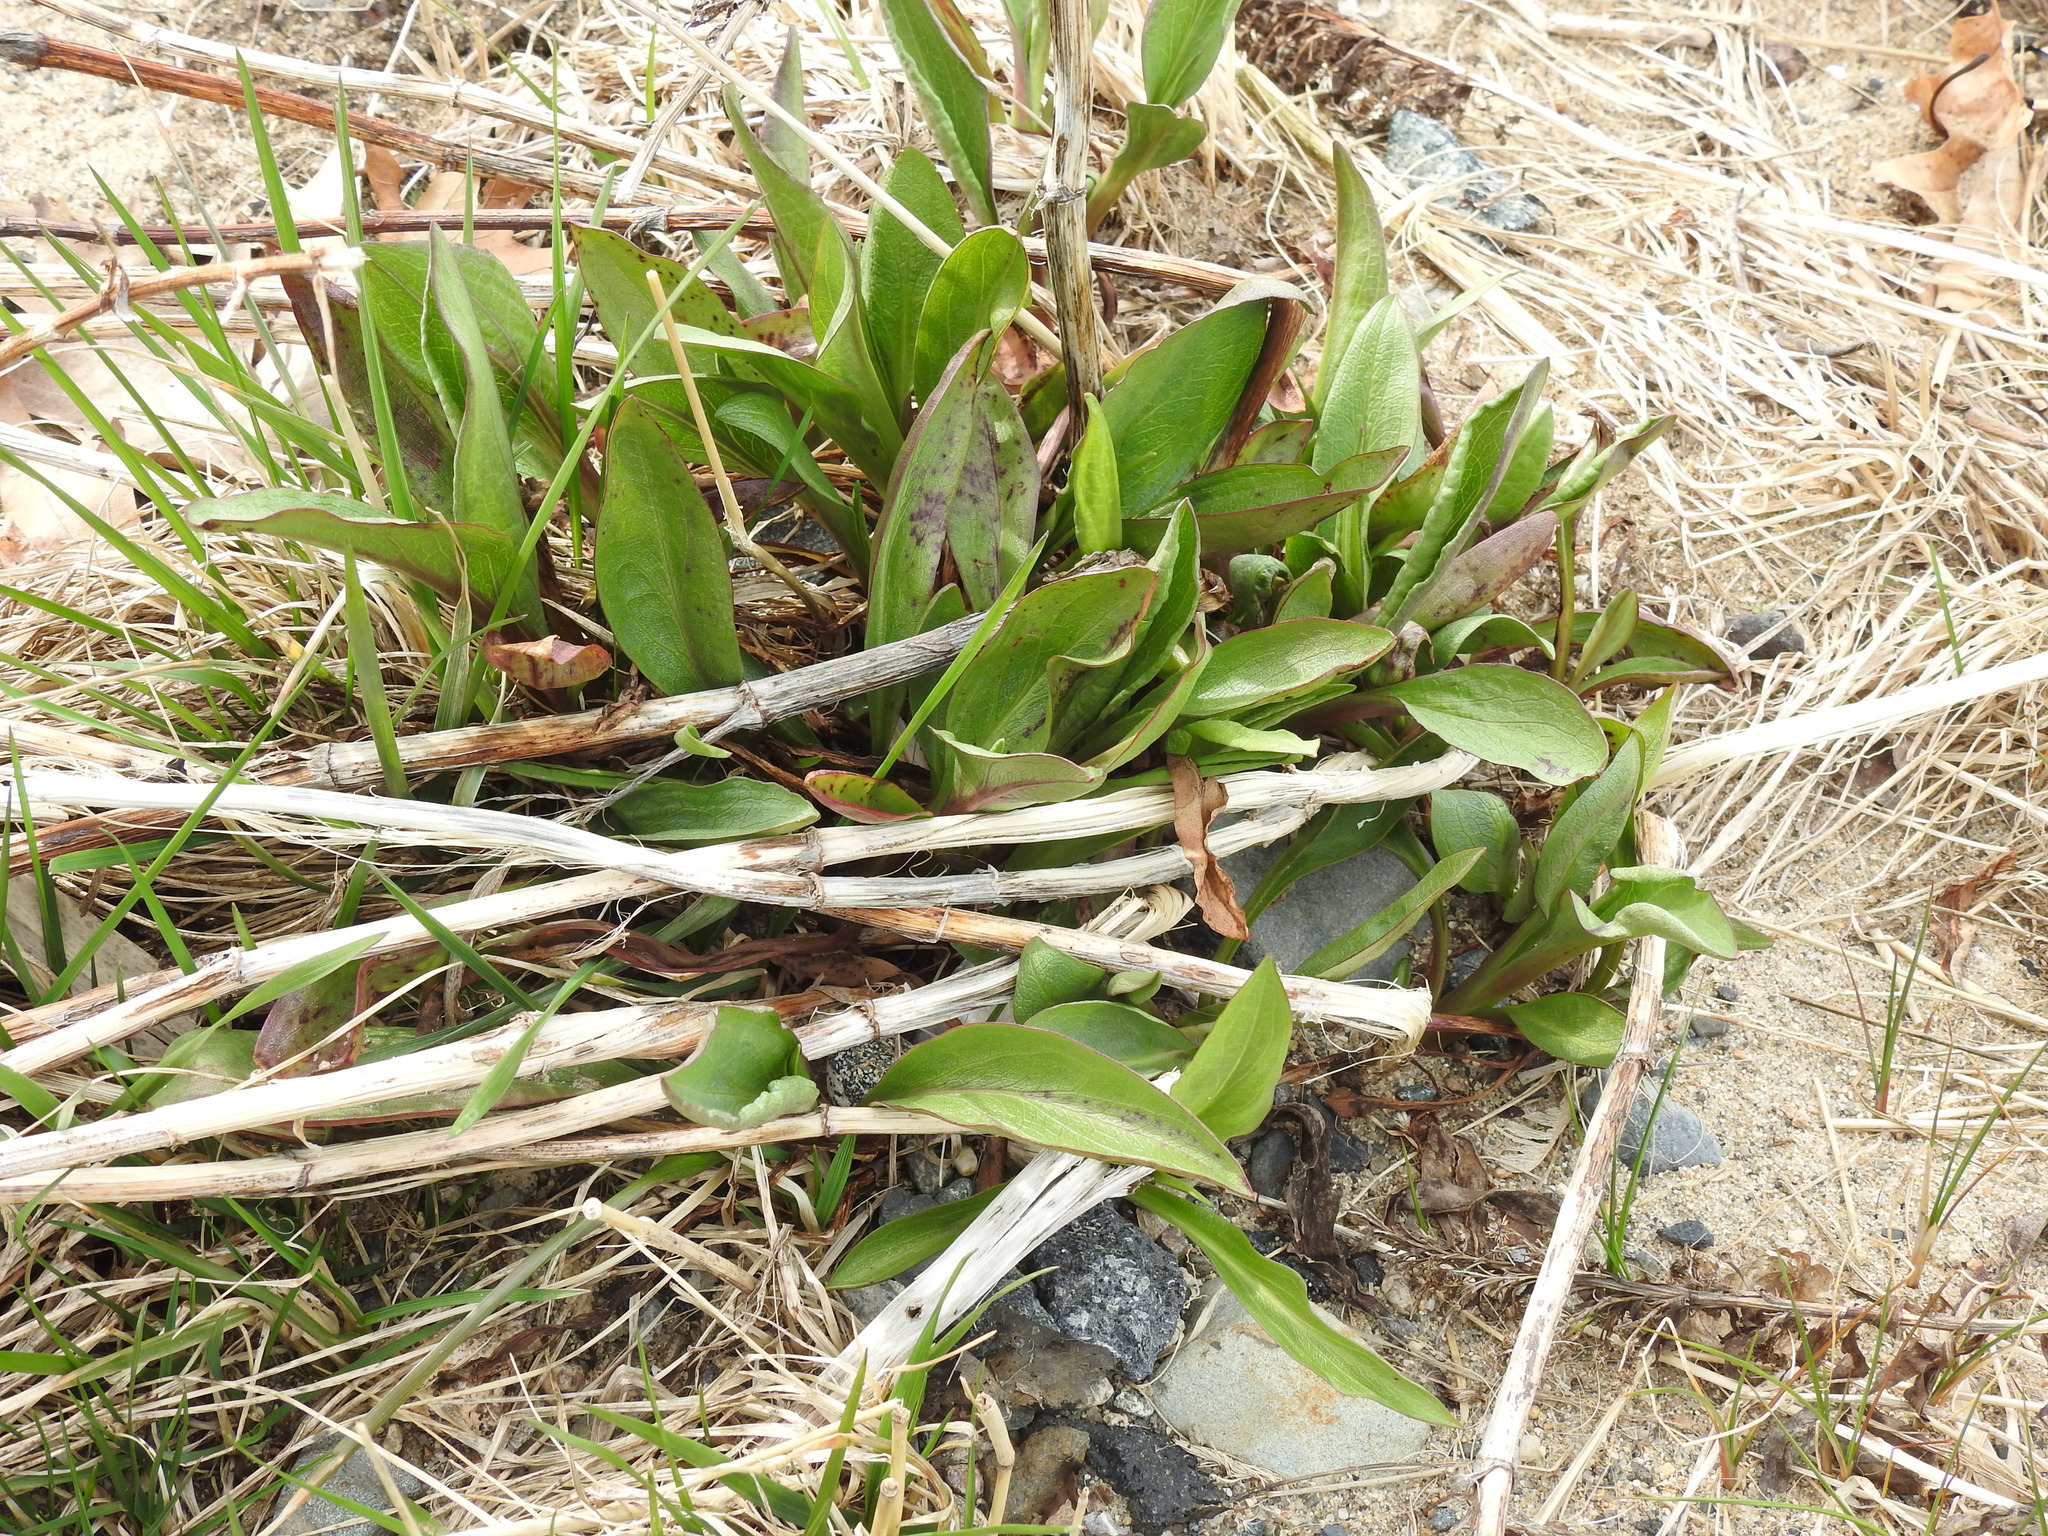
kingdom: Plantae
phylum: Tracheophyta
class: Magnoliopsida
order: Asterales
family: Asteraceae
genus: Solidago
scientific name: Solidago sempervirens
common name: Salt-marsh goldenrod
